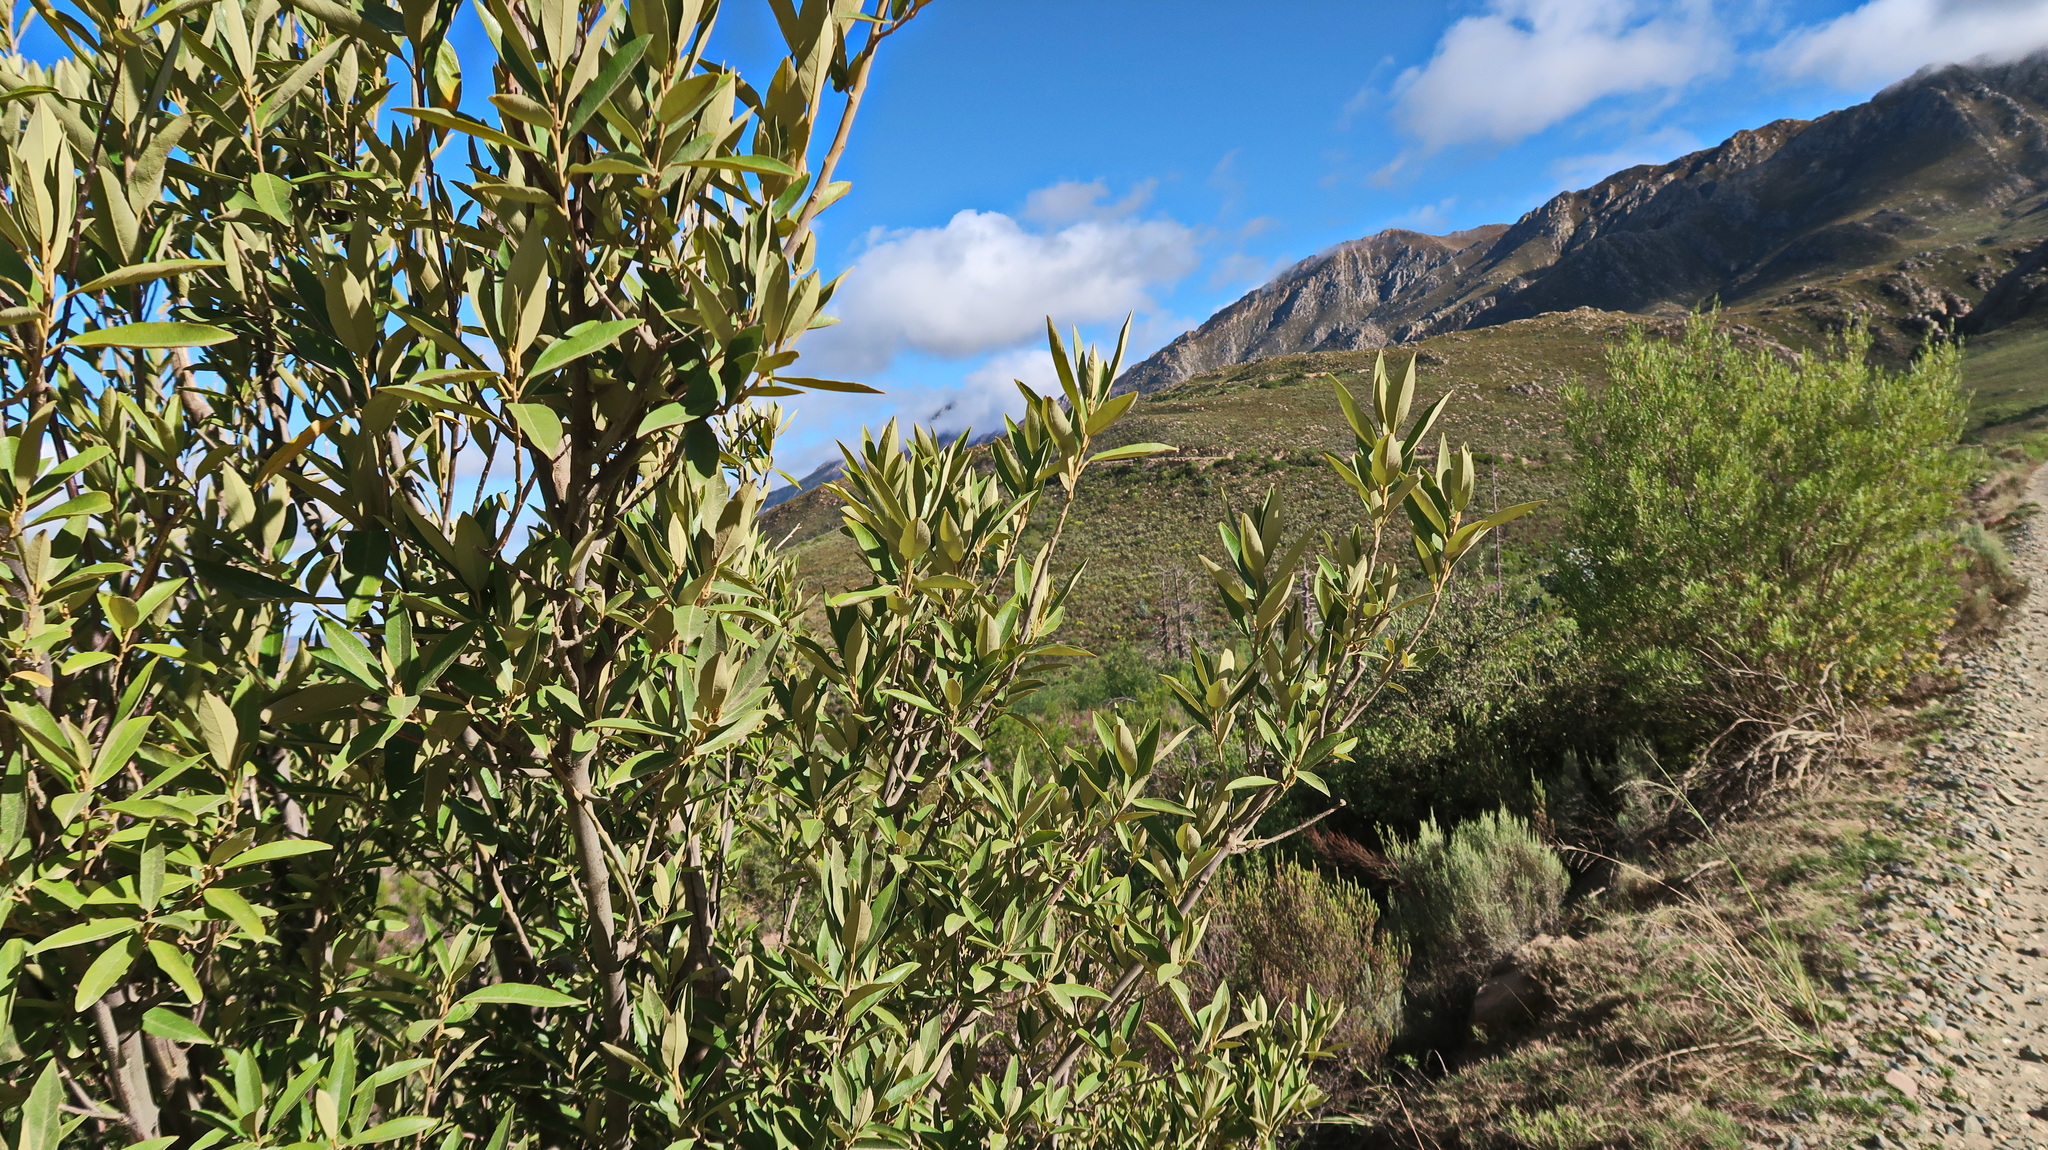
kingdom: Plantae
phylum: Tracheophyta
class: Magnoliopsida
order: Malpighiales
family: Achariaceae
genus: Kiggelaria
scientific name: Kiggelaria africana
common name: Wild peach
